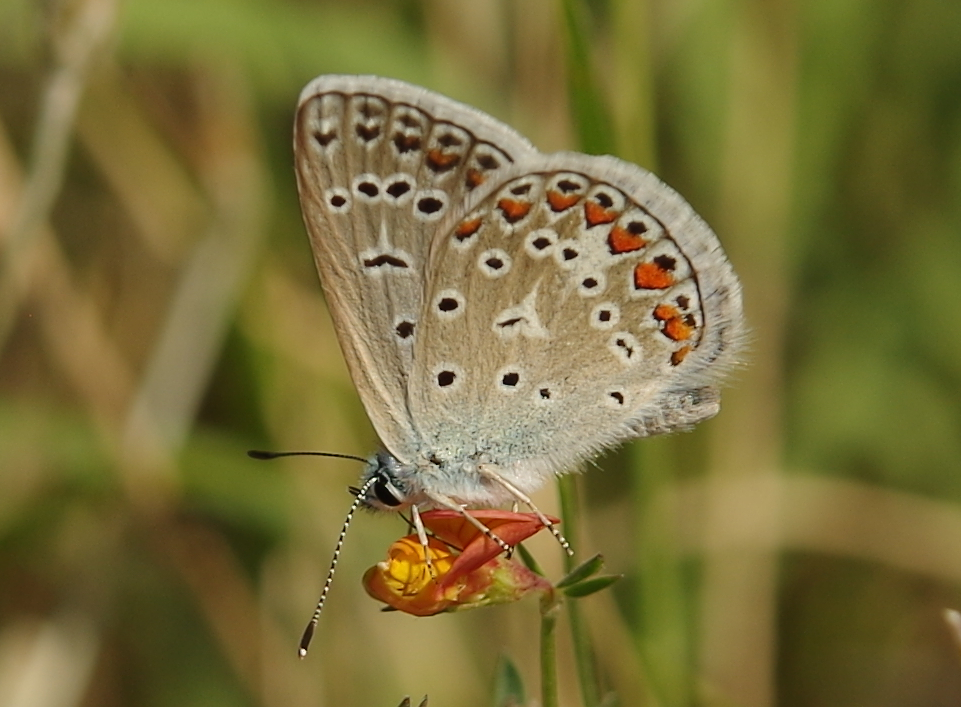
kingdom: Animalia
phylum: Arthropoda
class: Insecta
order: Lepidoptera
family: Lycaenidae
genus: Polyommatus
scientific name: Polyommatus icarus
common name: Common blue
